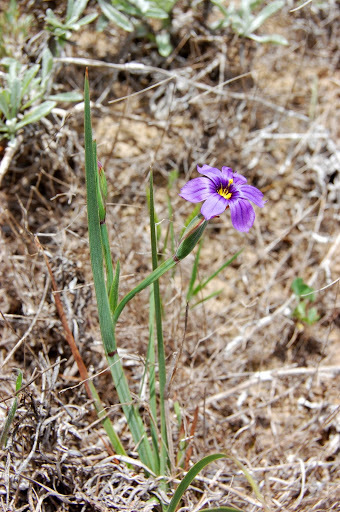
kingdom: Plantae
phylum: Tracheophyta
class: Liliopsida
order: Asparagales
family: Iridaceae
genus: Sisyrinchium
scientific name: Sisyrinchium bellum
